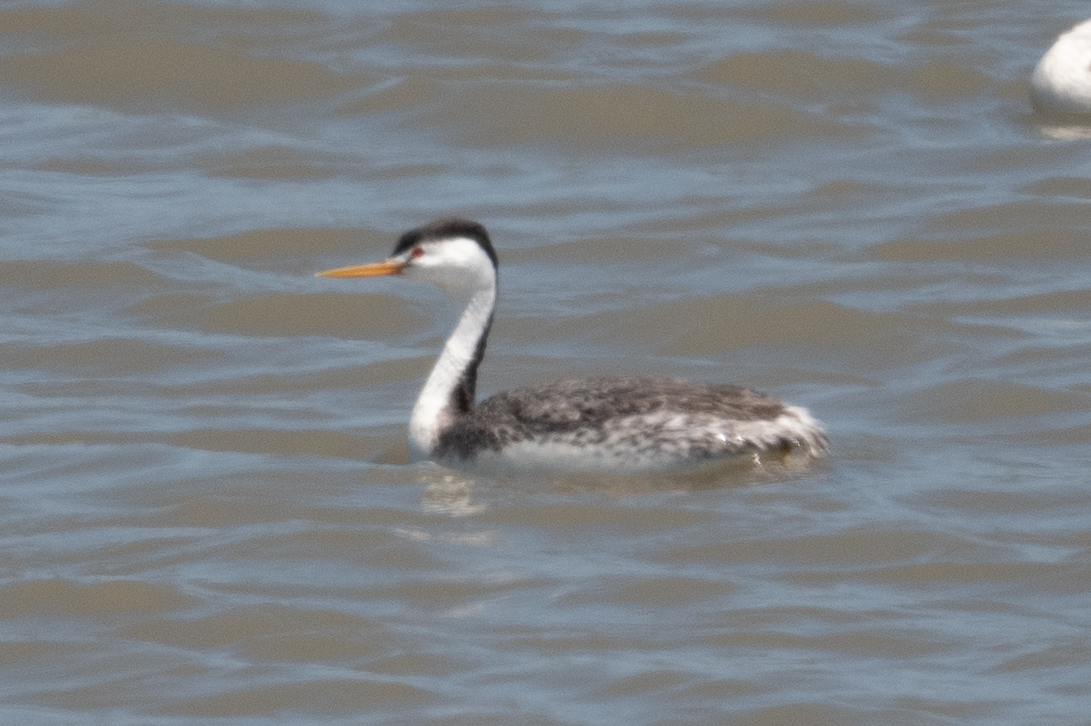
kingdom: Animalia
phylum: Chordata
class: Aves
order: Podicipediformes
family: Podicipedidae
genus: Aechmophorus
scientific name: Aechmophorus clarkii
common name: Clark's grebe
